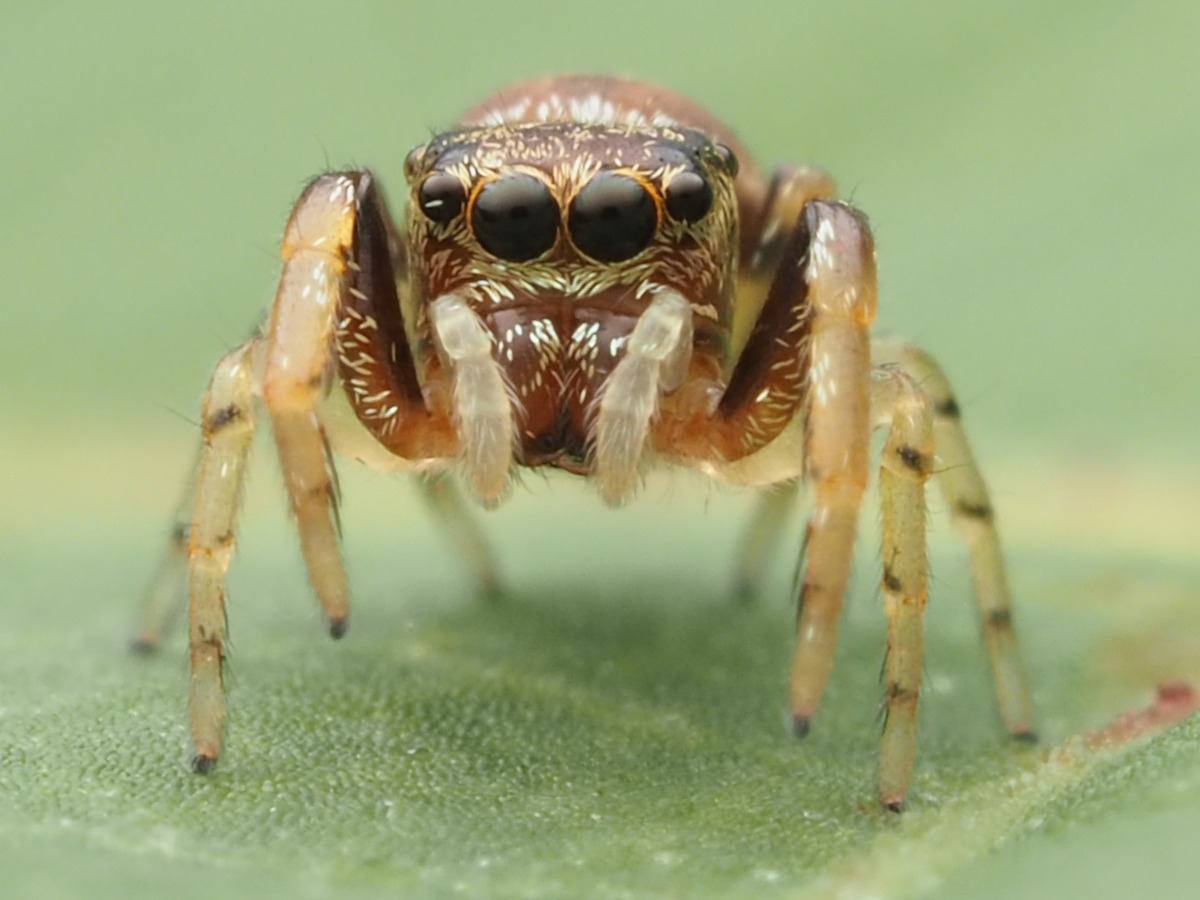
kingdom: Animalia
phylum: Arthropoda
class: Arachnida
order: Araneae
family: Salticidae
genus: Zygoballus
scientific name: Zygoballus rufipes
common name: Jumping spiders
